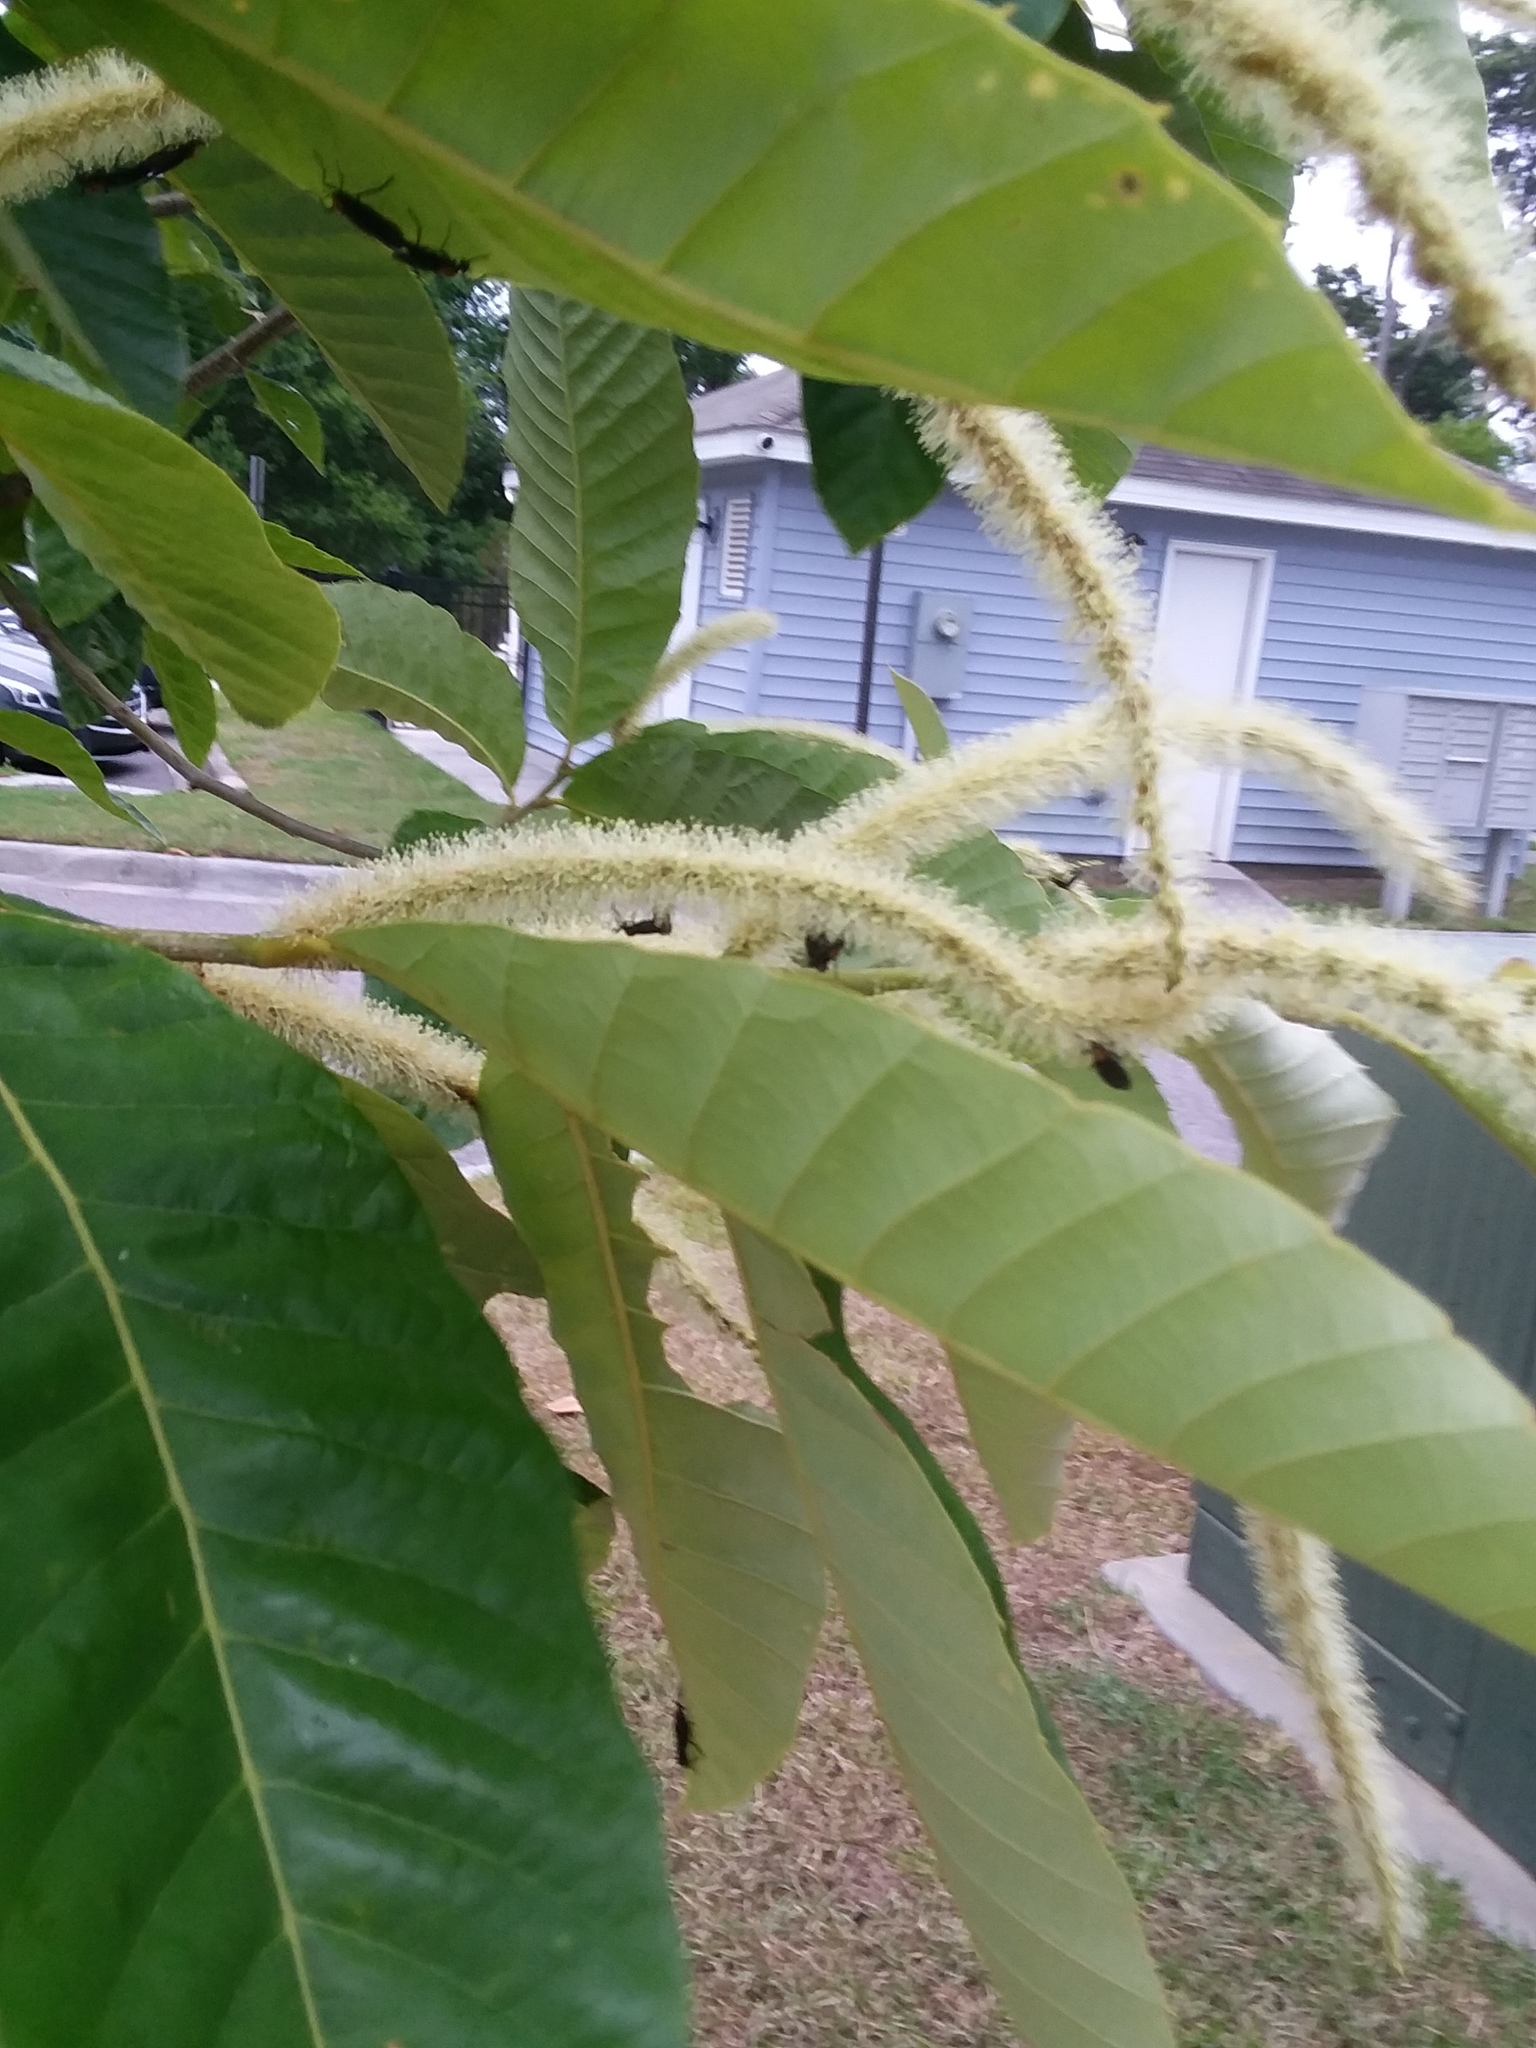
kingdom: Animalia
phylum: Arthropoda
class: Insecta
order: Diptera
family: Bibionidae
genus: Plecia
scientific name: Plecia nearctica
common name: March fly
